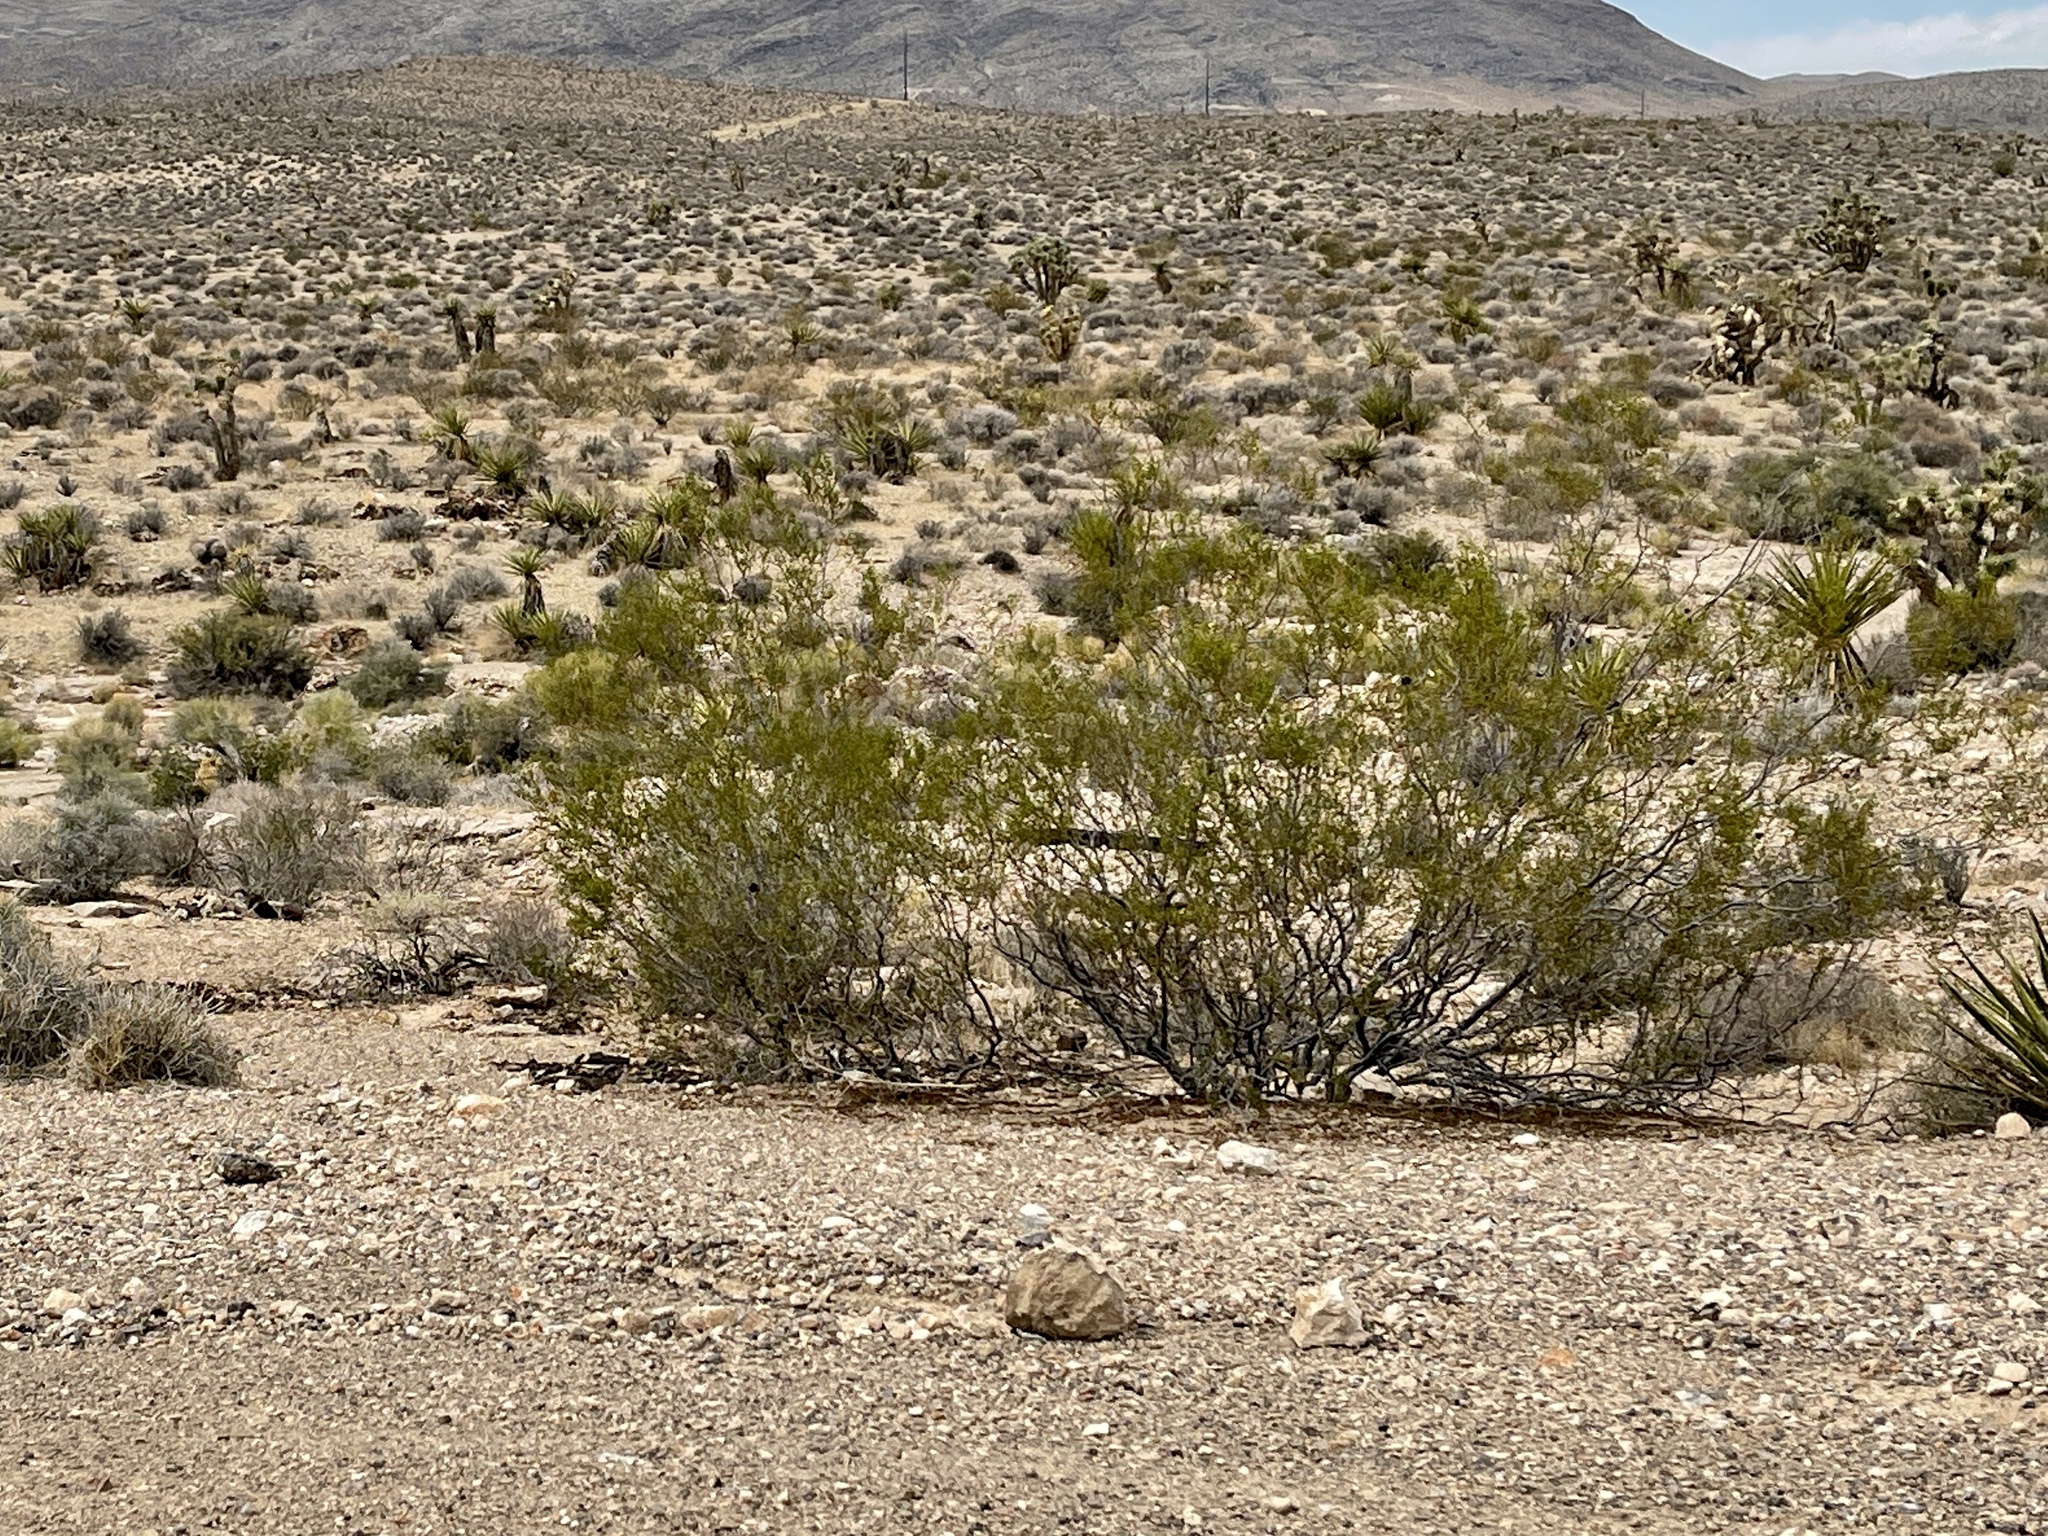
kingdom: Plantae
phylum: Tracheophyta
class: Magnoliopsida
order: Zygophyllales
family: Zygophyllaceae
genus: Larrea
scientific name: Larrea tridentata
